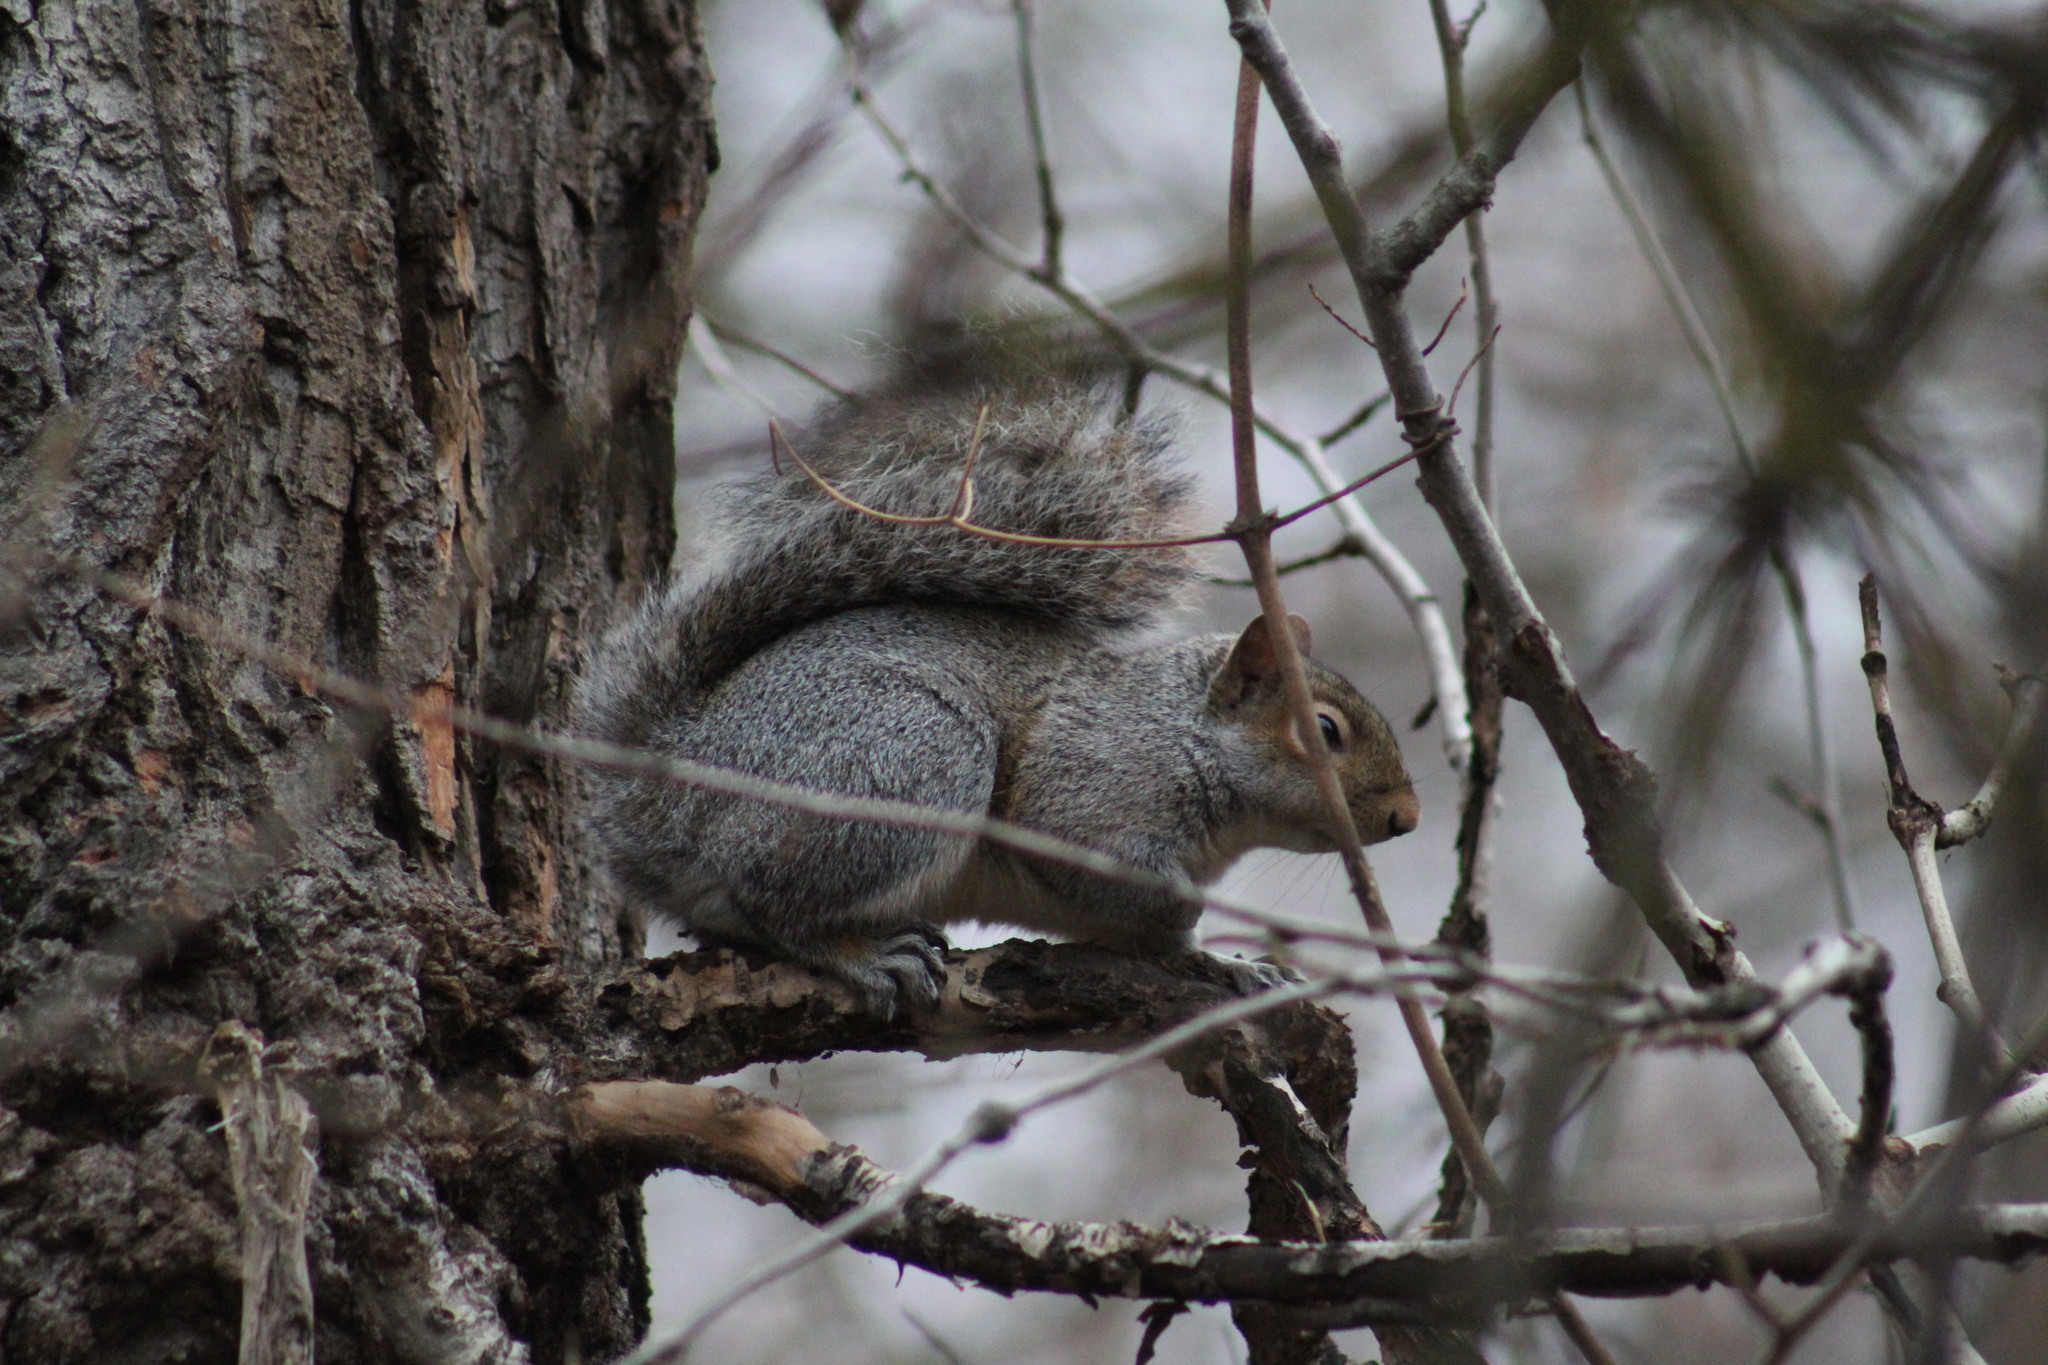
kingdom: Animalia
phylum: Chordata
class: Mammalia
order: Rodentia
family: Sciuridae
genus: Sciurus
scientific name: Sciurus carolinensis
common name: Eastern gray squirrel
